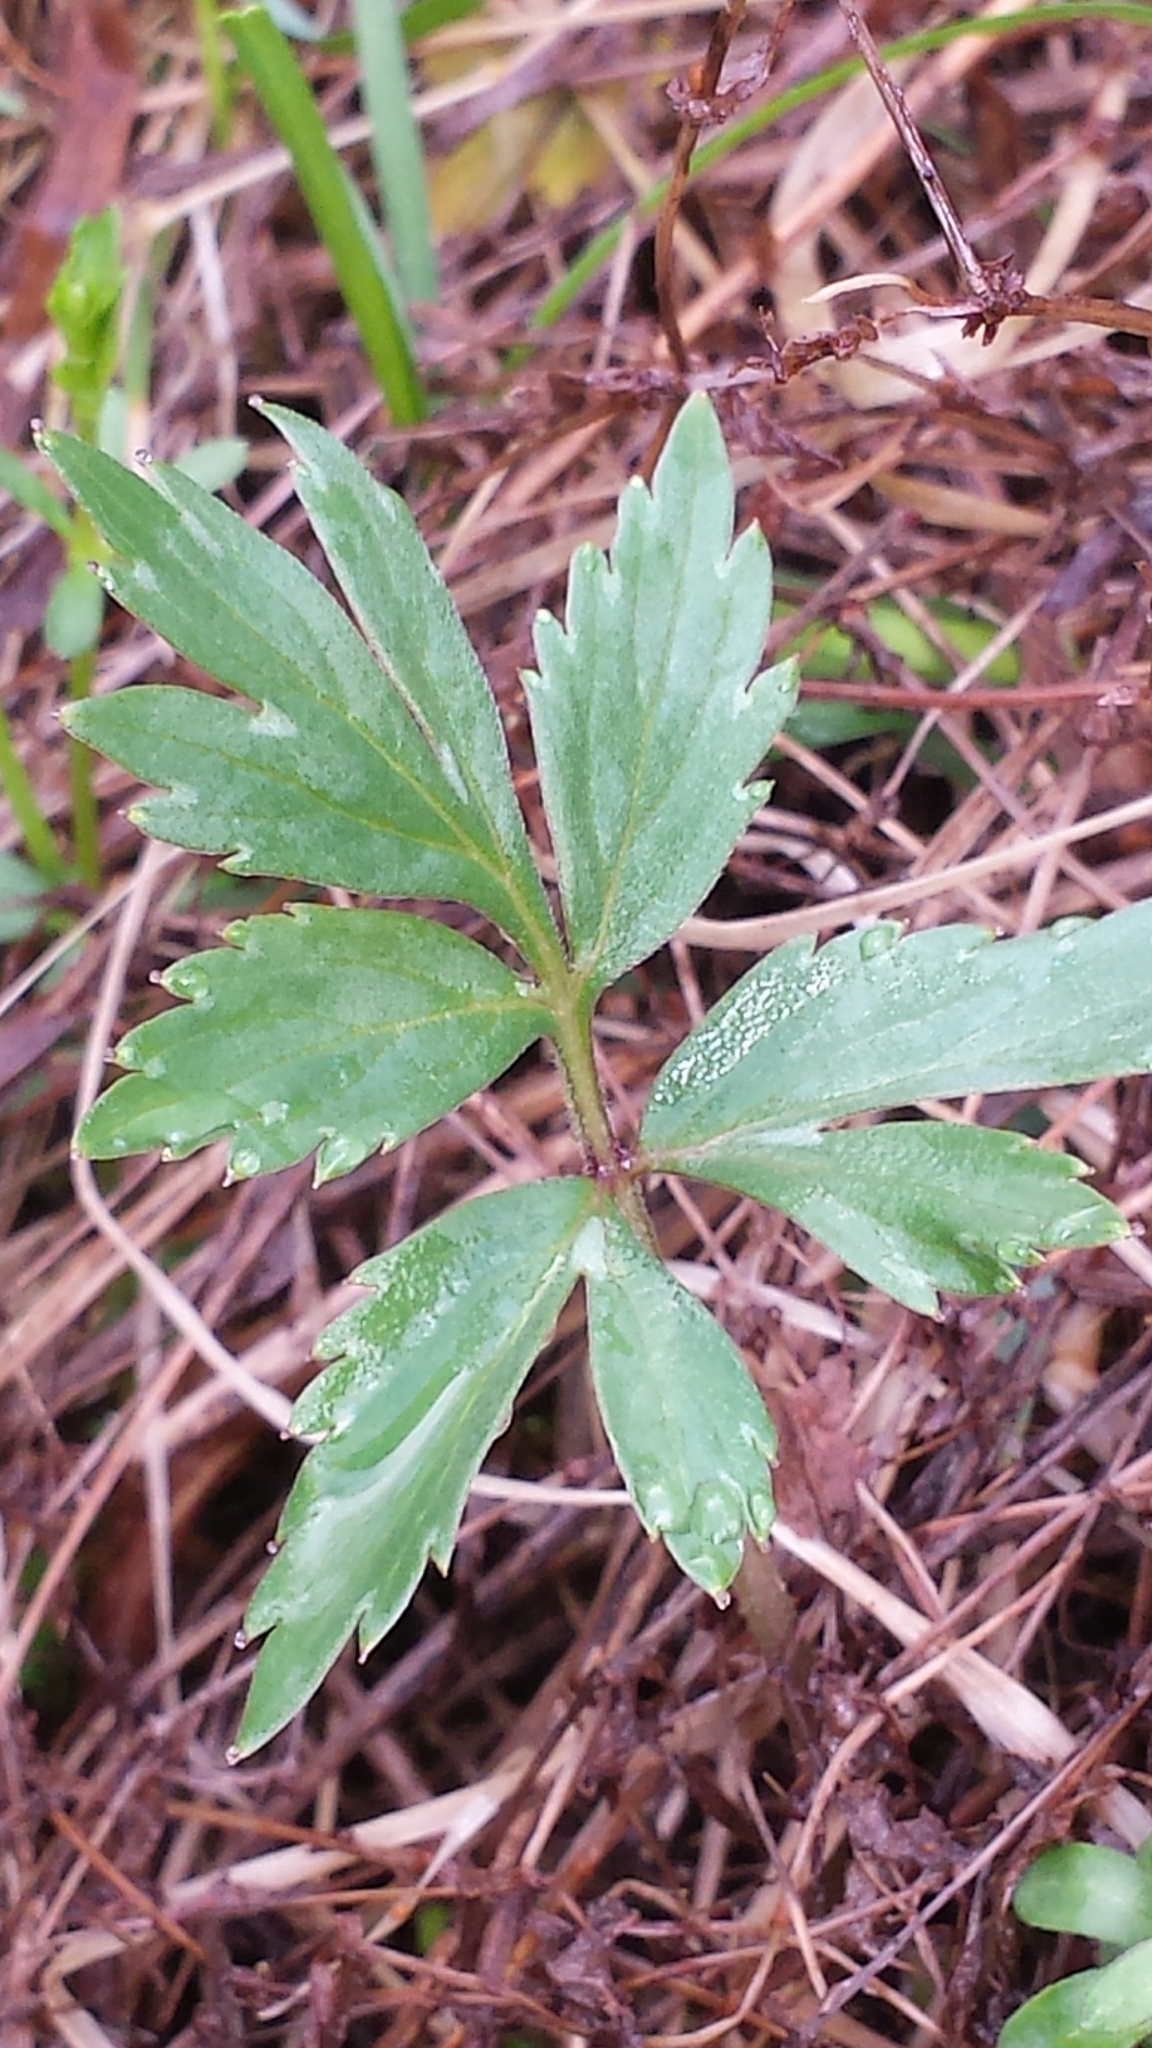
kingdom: Plantae
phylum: Tracheophyta
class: Magnoliopsida
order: Boraginales
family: Hydrophyllaceae
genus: Hydrophyllum
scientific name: Hydrophyllum virginianum
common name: Virginia waterleaf
